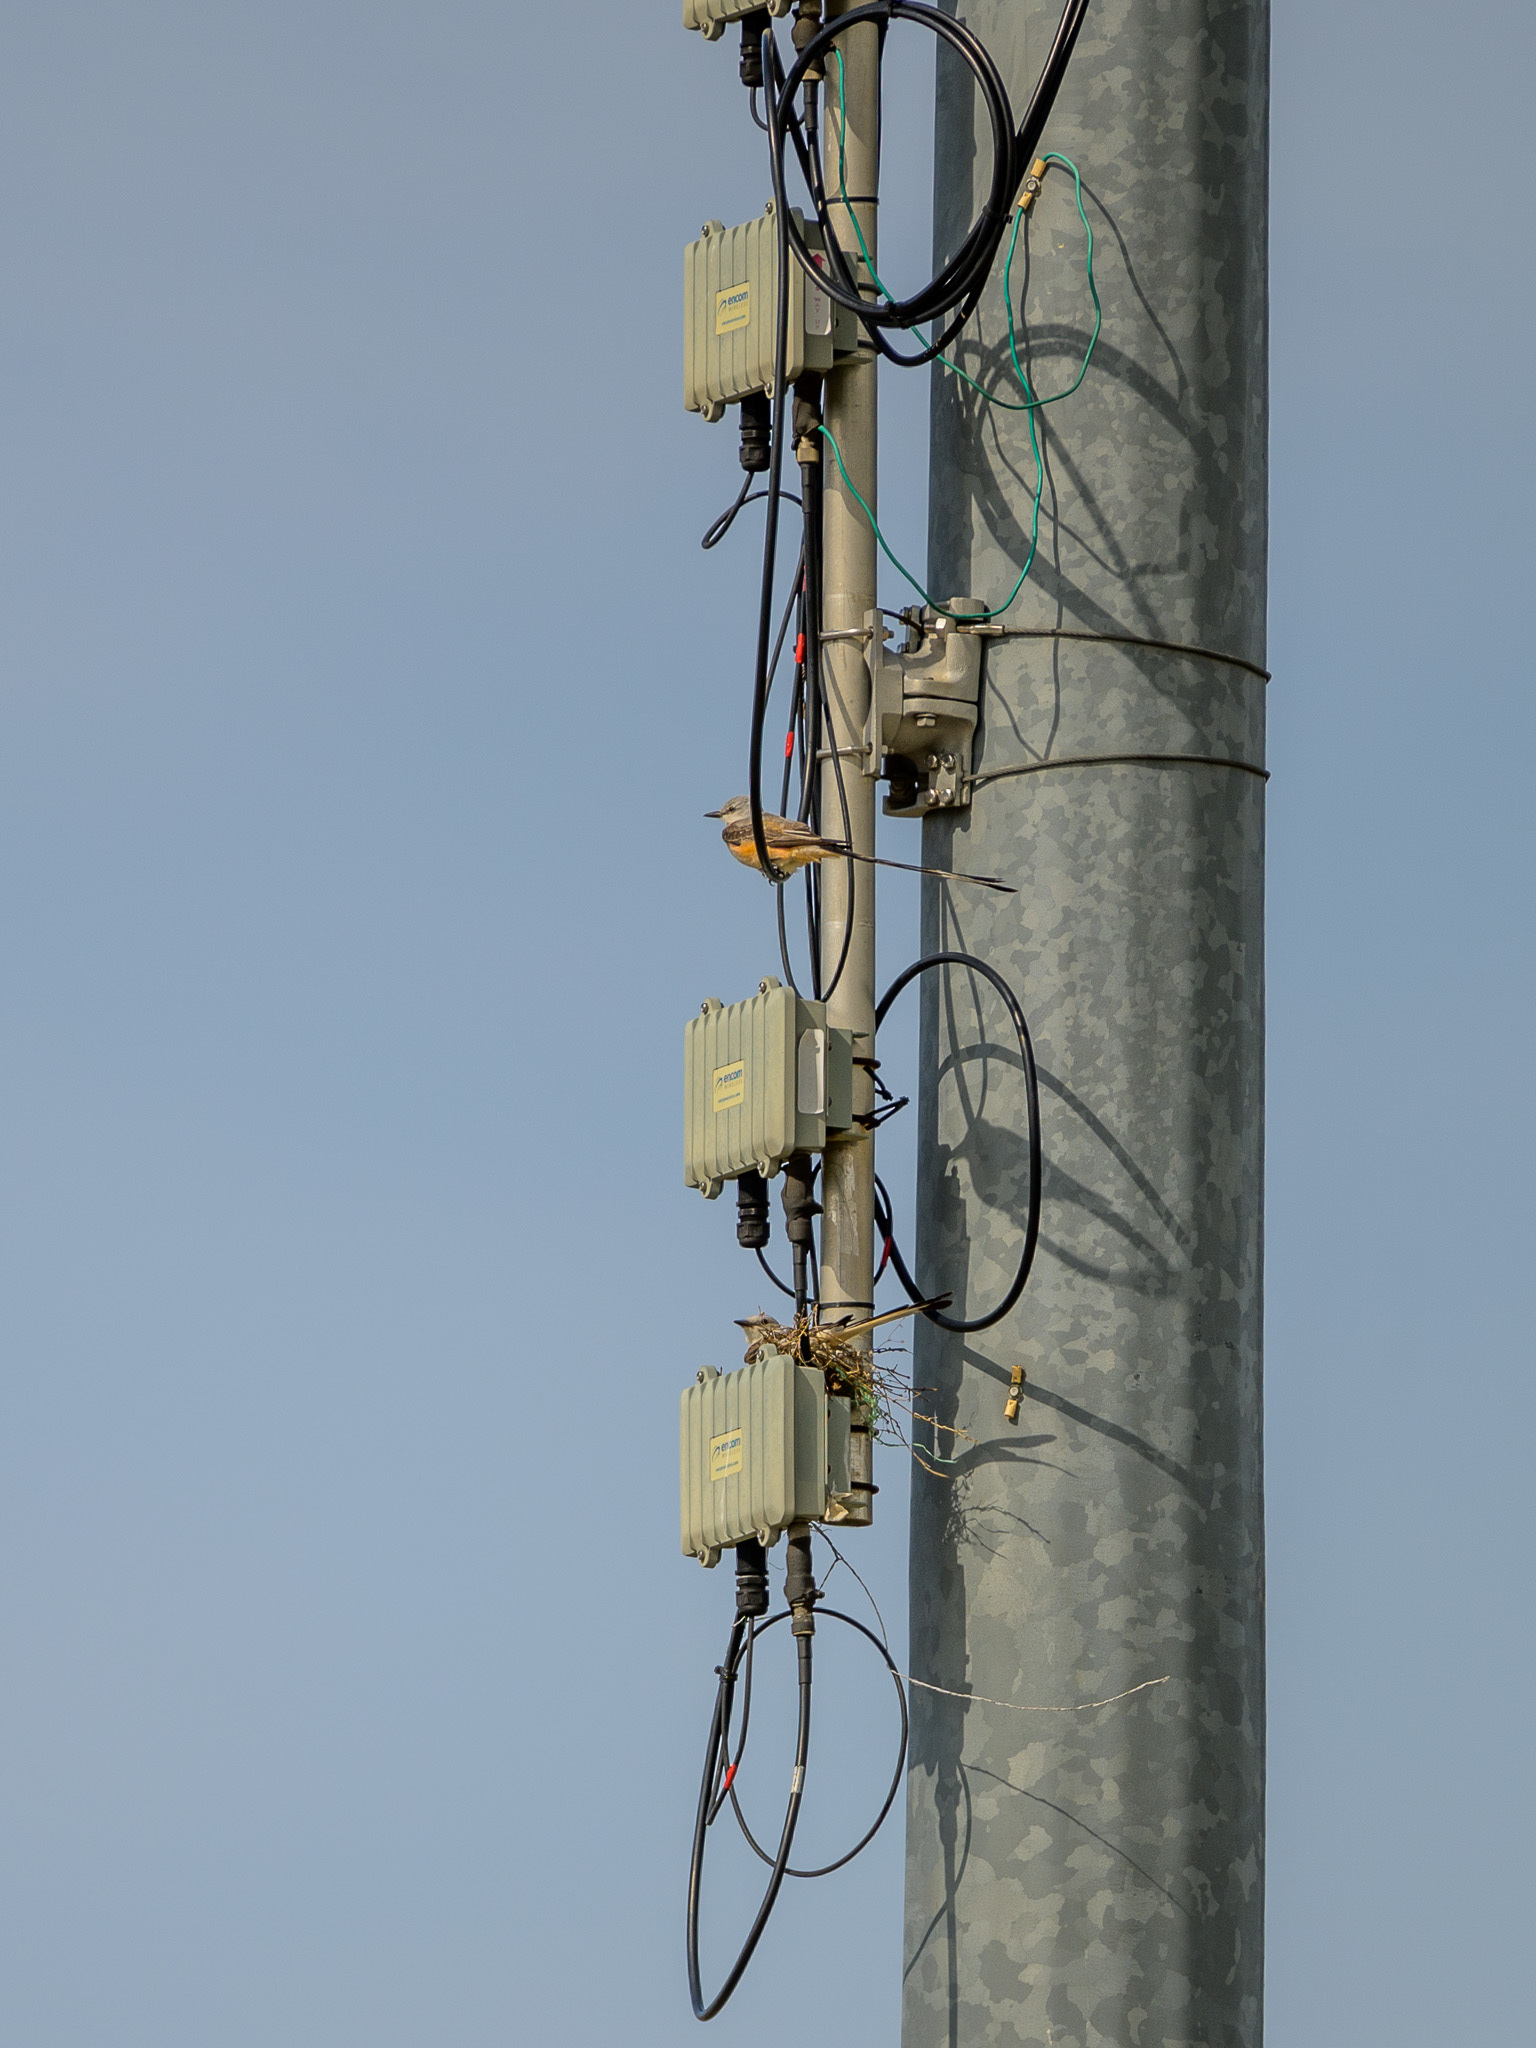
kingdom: Animalia
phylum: Chordata
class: Aves
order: Passeriformes
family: Tyrannidae
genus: Tyrannus
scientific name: Tyrannus forficatus
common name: Scissor-tailed flycatcher
